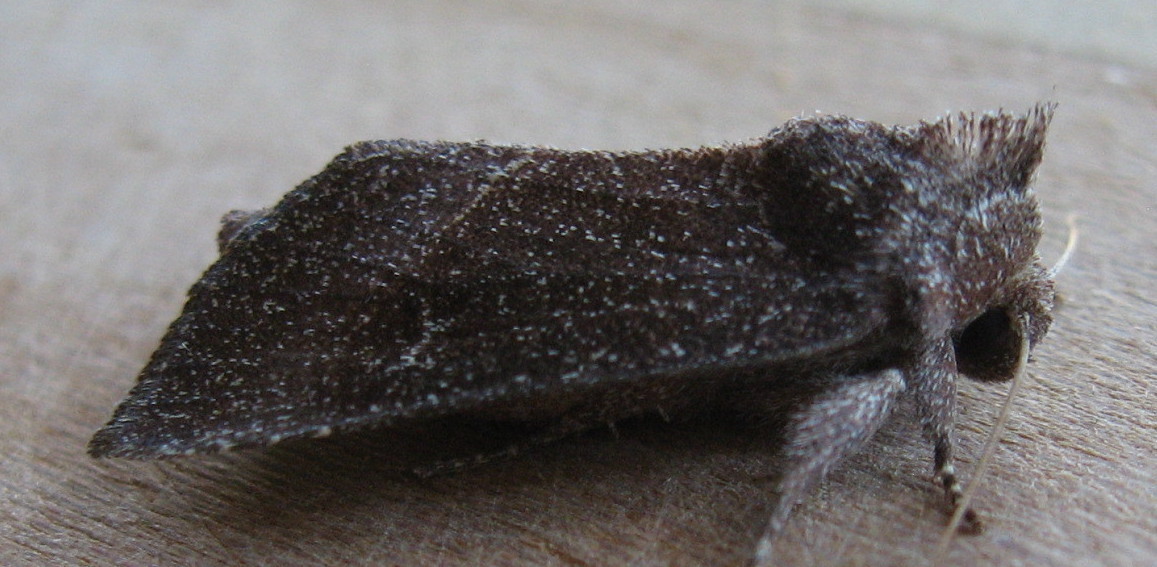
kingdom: Animalia
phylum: Arthropoda
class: Insecta
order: Lepidoptera
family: Noctuidae
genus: Papaipema
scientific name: Papaipema silphii
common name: Silphium borer moth
